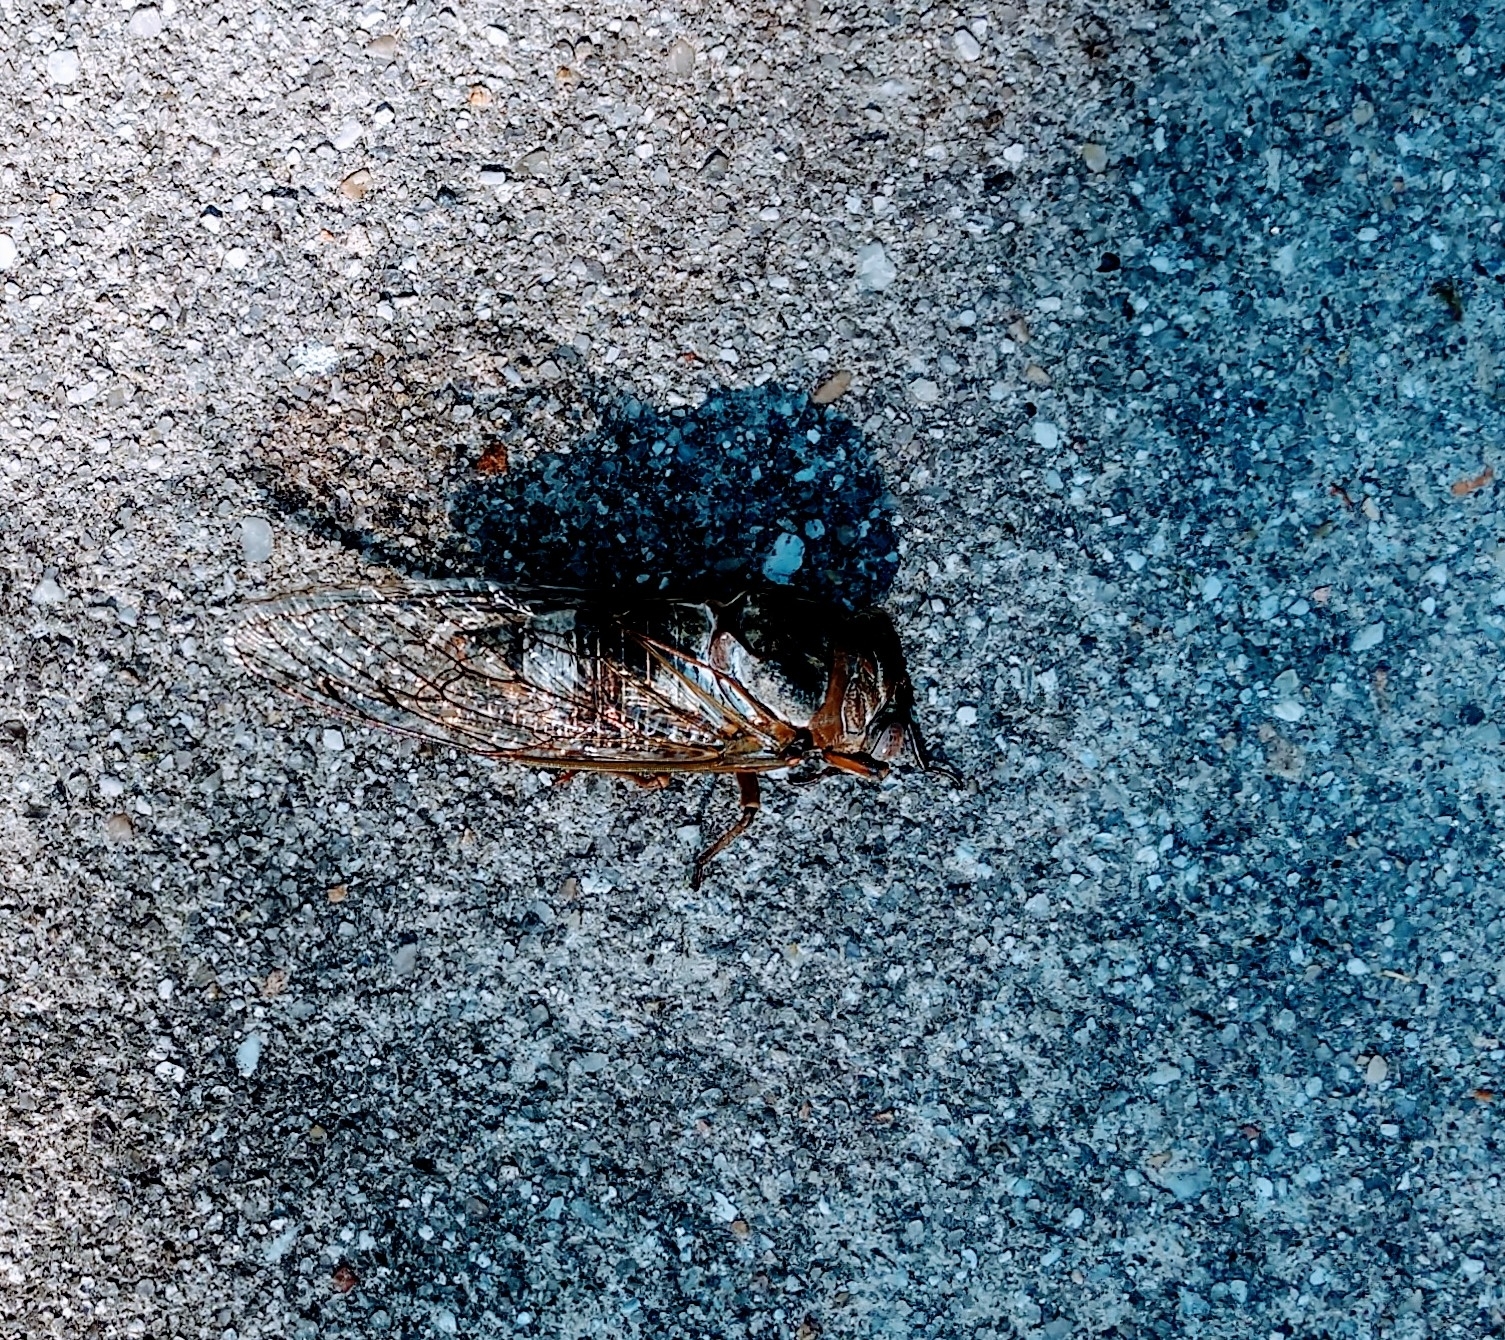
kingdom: Animalia
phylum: Arthropoda
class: Insecta
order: Hemiptera
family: Cicadidae
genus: Diceroprocta
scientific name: Diceroprocta grossa
